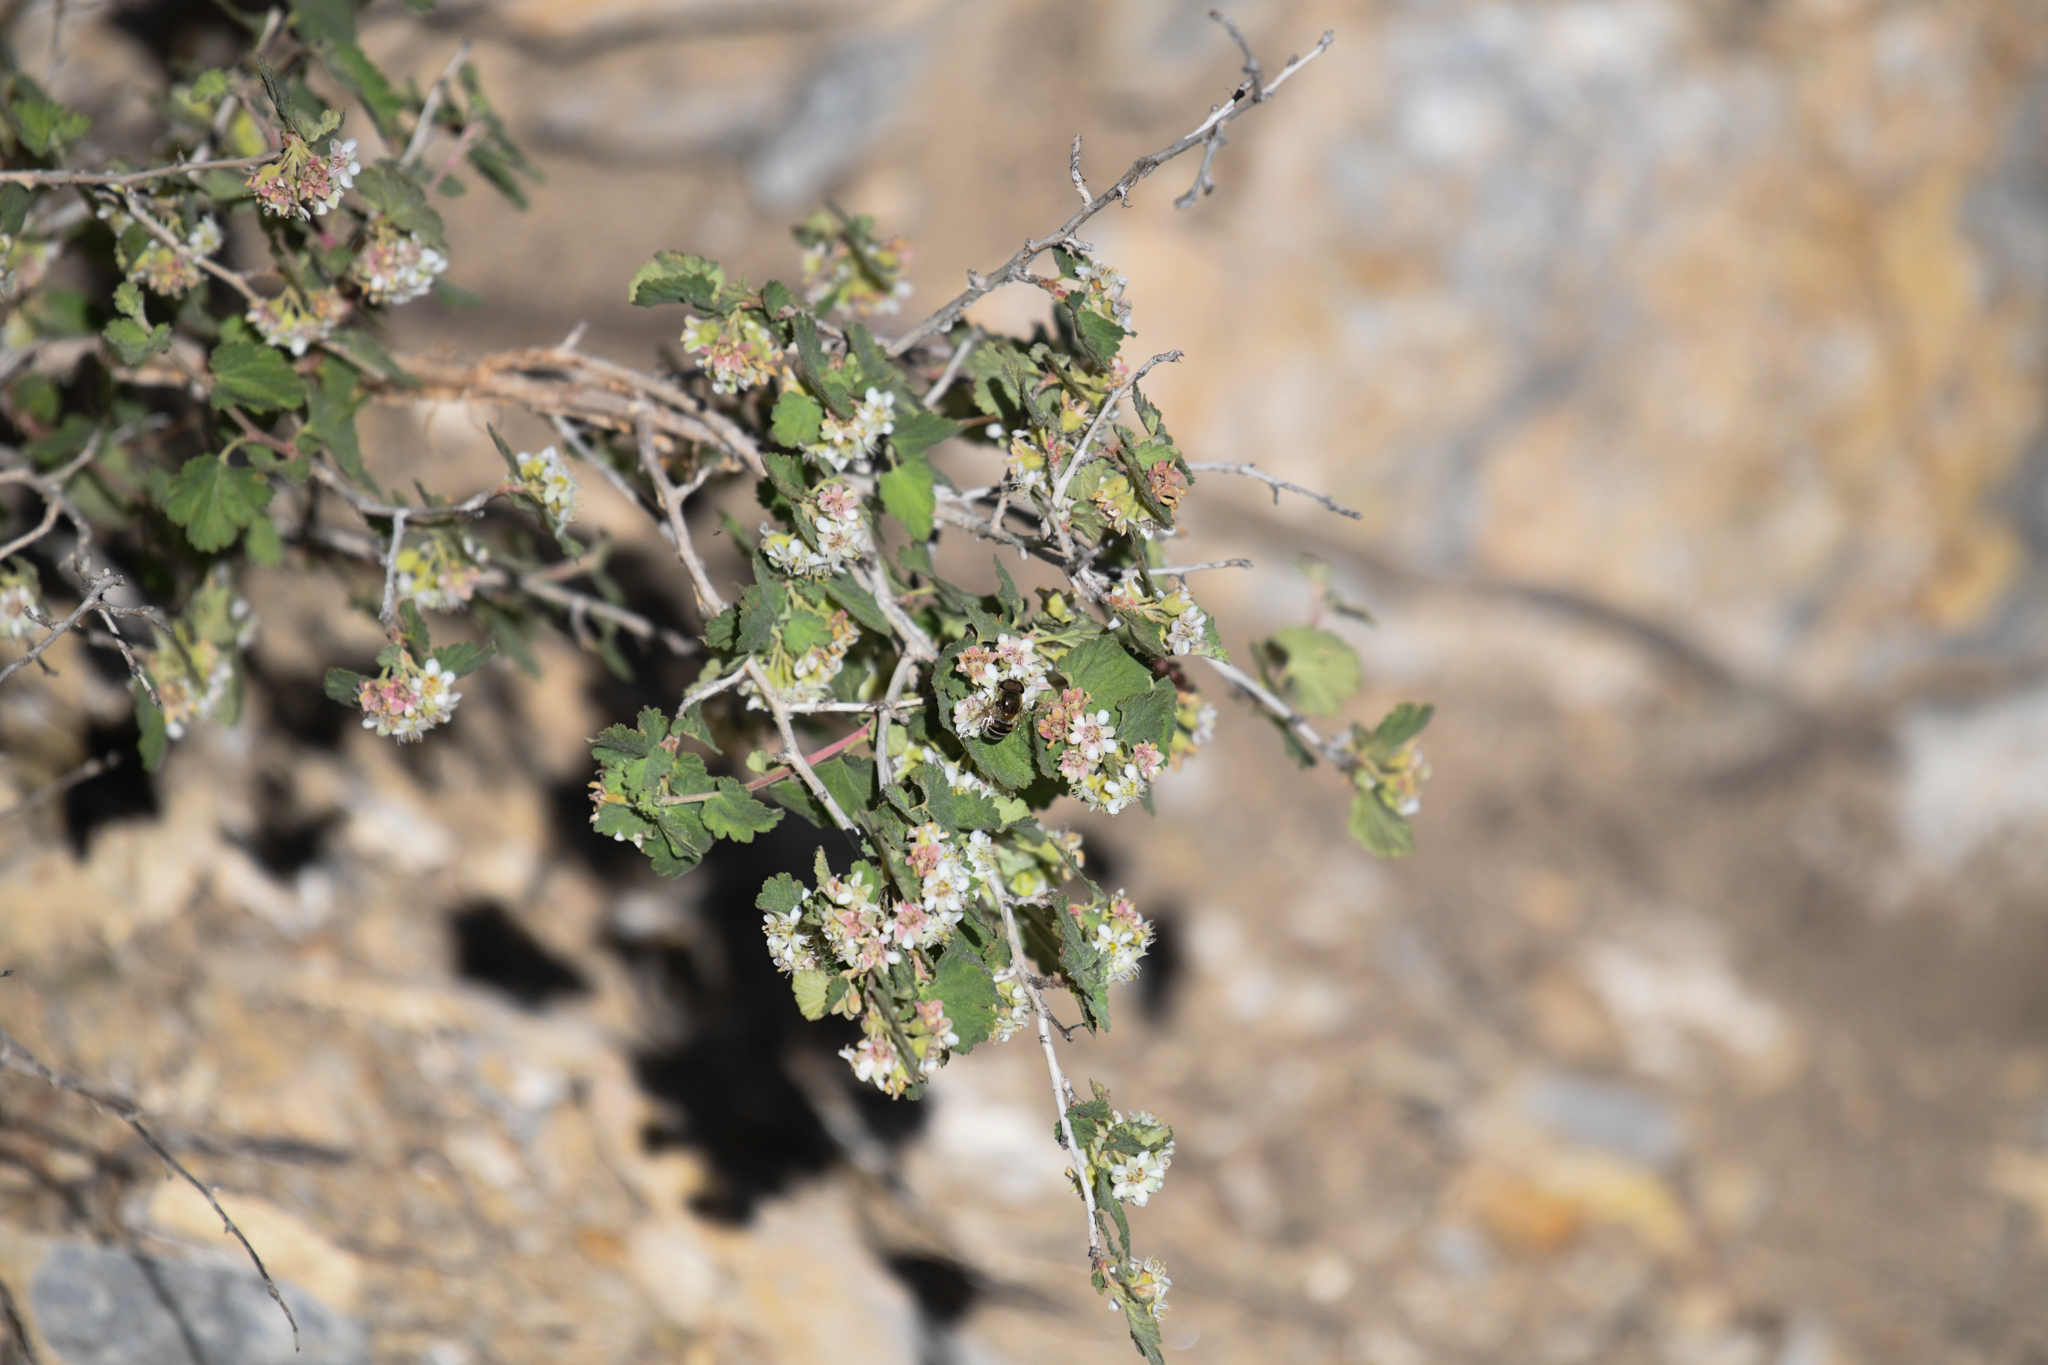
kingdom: Plantae
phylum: Tracheophyta
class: Magnoliopsida
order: Rosales
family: Rosaceae
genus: Physocarpus
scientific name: Physocarpus alternans
